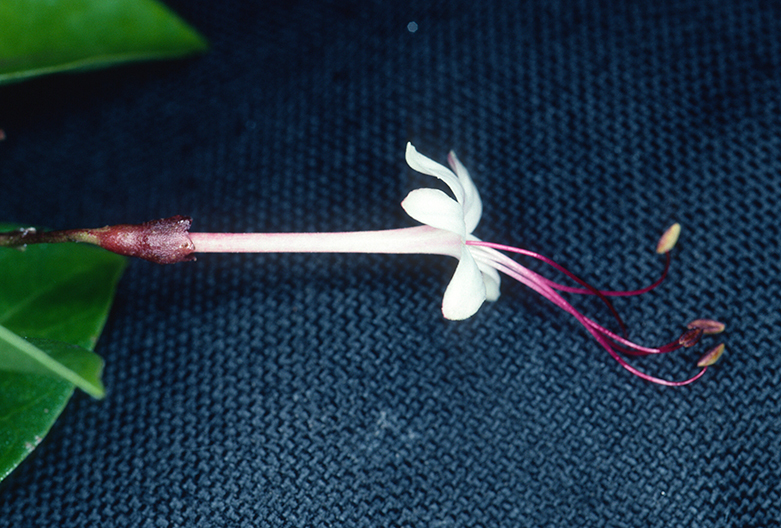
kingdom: Plantae
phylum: Tracheophyta
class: Magnoliopsida
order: Lamiales
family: Lamiaceae
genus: Volkameria
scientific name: Volkameria inermis
